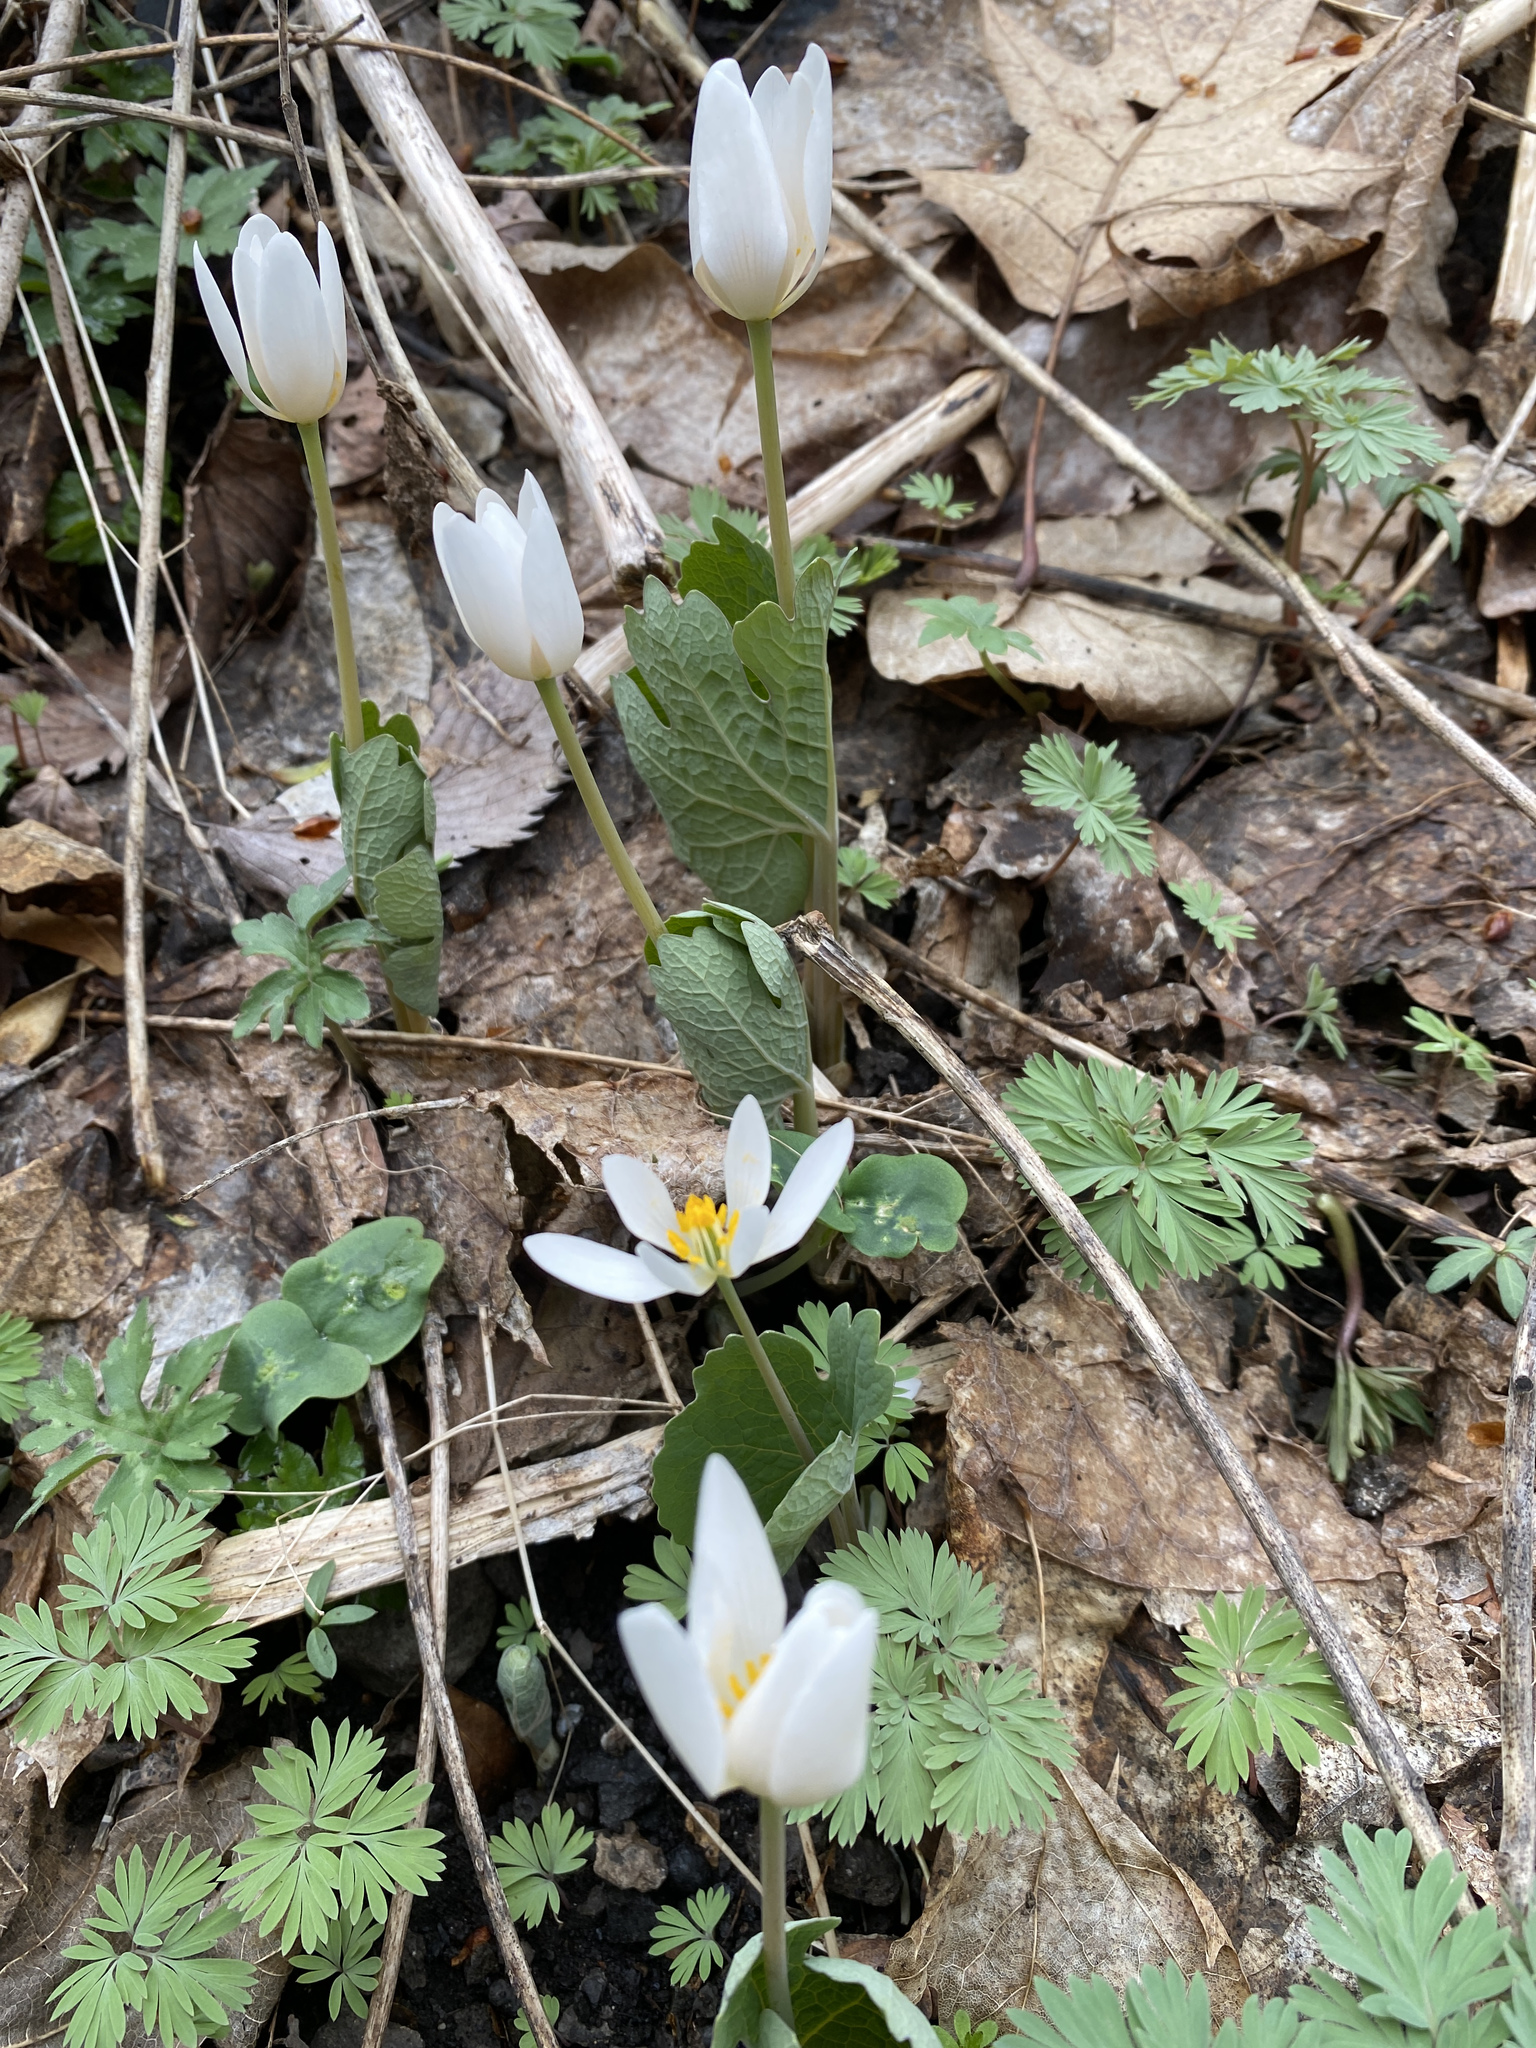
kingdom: Plantae
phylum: Tracheophyta
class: Magnoliopsida
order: Ranunculales
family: Papaveraceae
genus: Sanguinaria
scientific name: Sanguinaria canadensis
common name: Bloodroot
